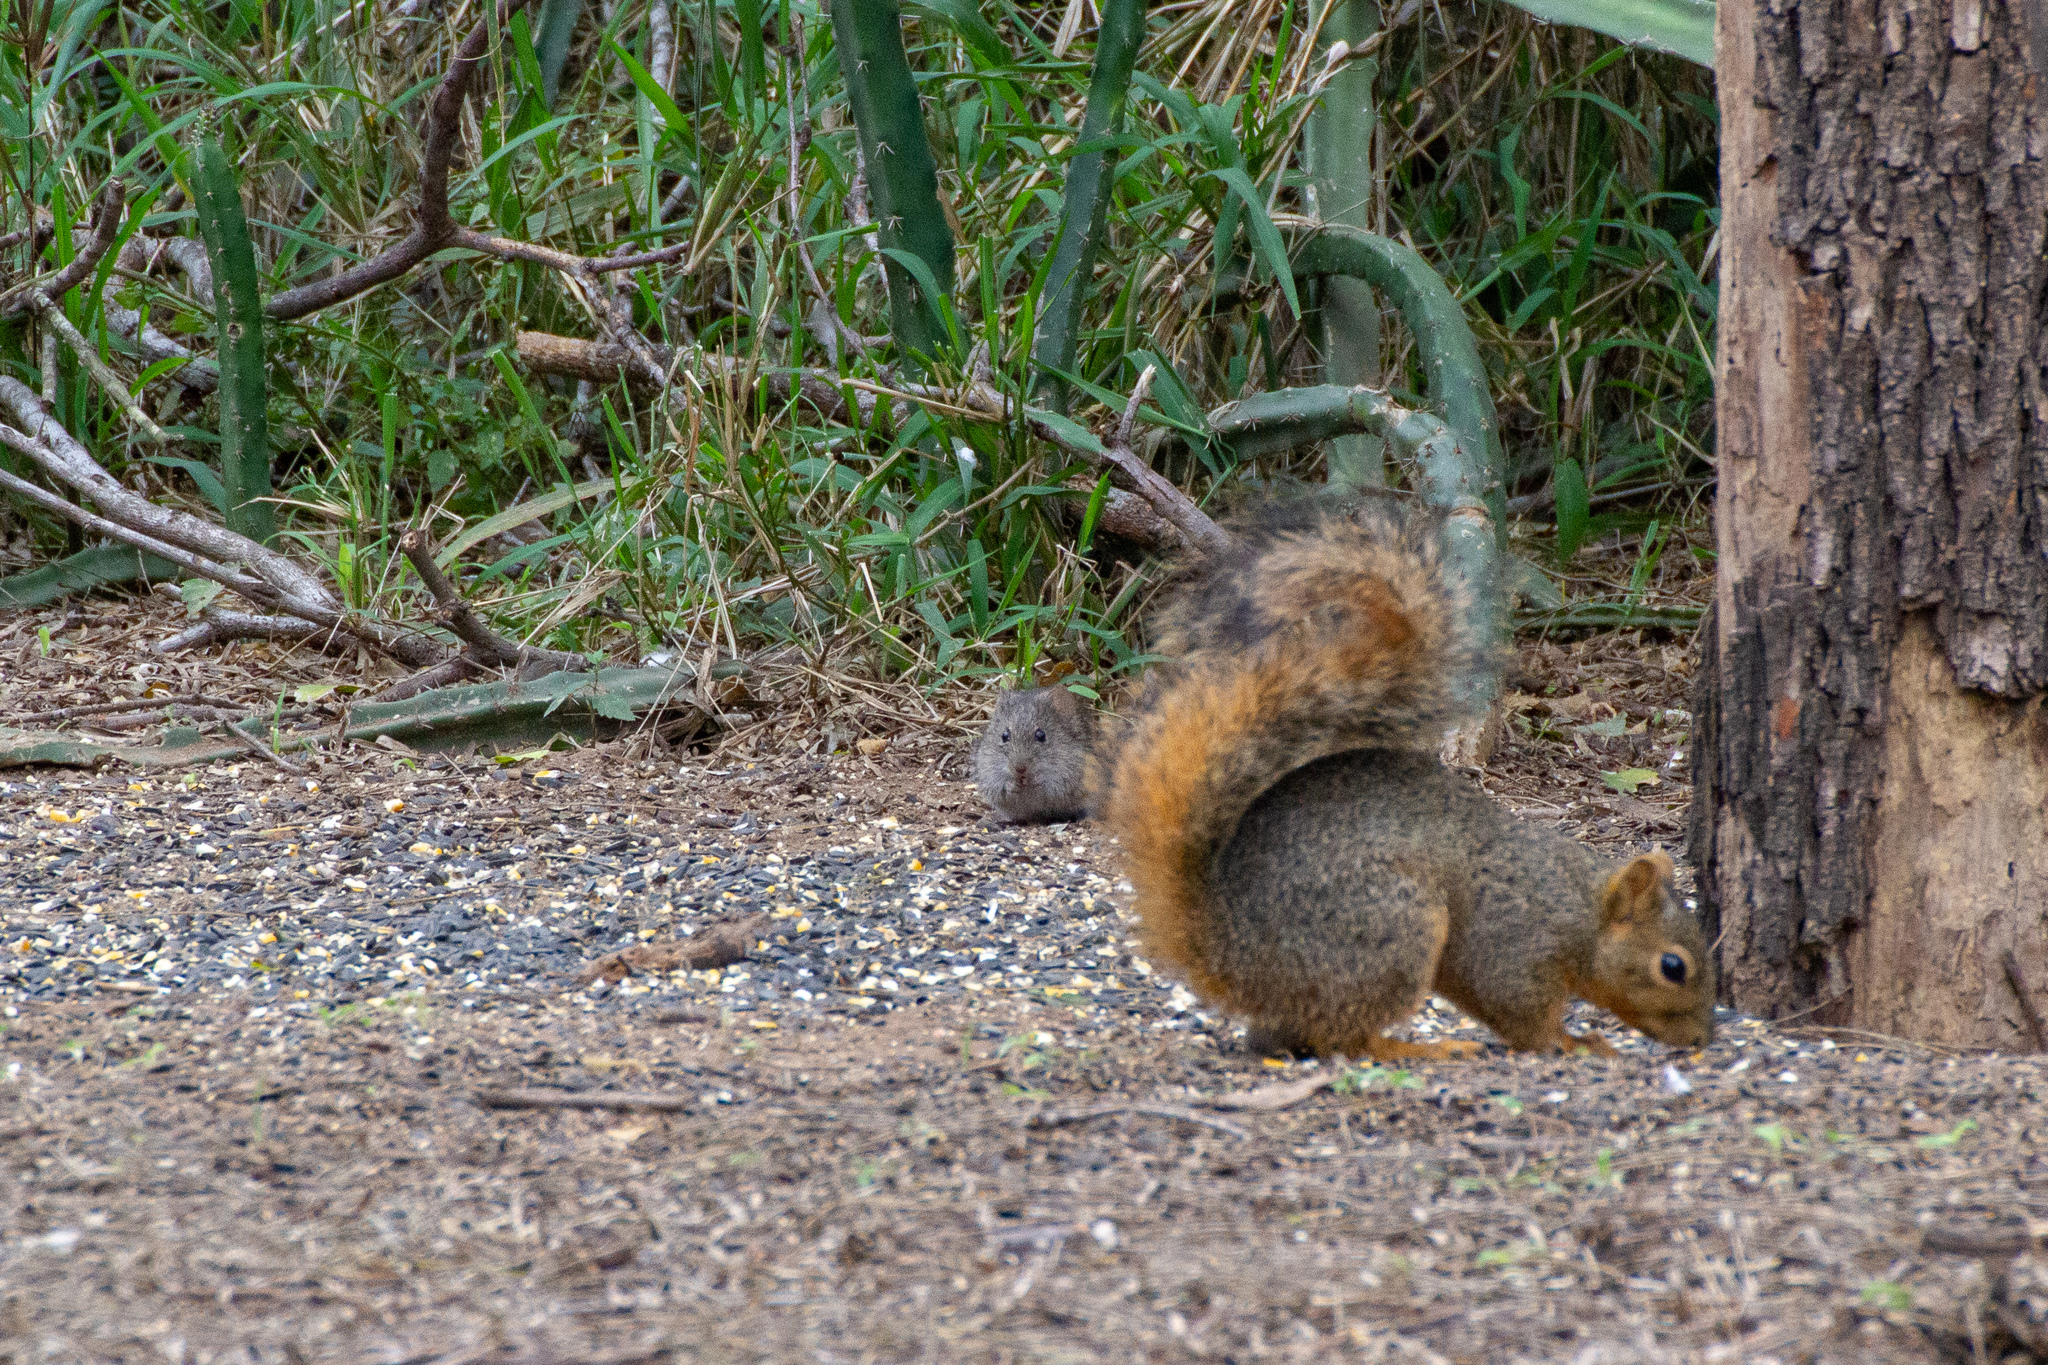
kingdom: Animalia
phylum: Chordata
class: Mammalia
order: Rodentia
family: Cricetidae
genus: Sigmodon
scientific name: Sigmodon hispidus
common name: Hispid cotton rat
